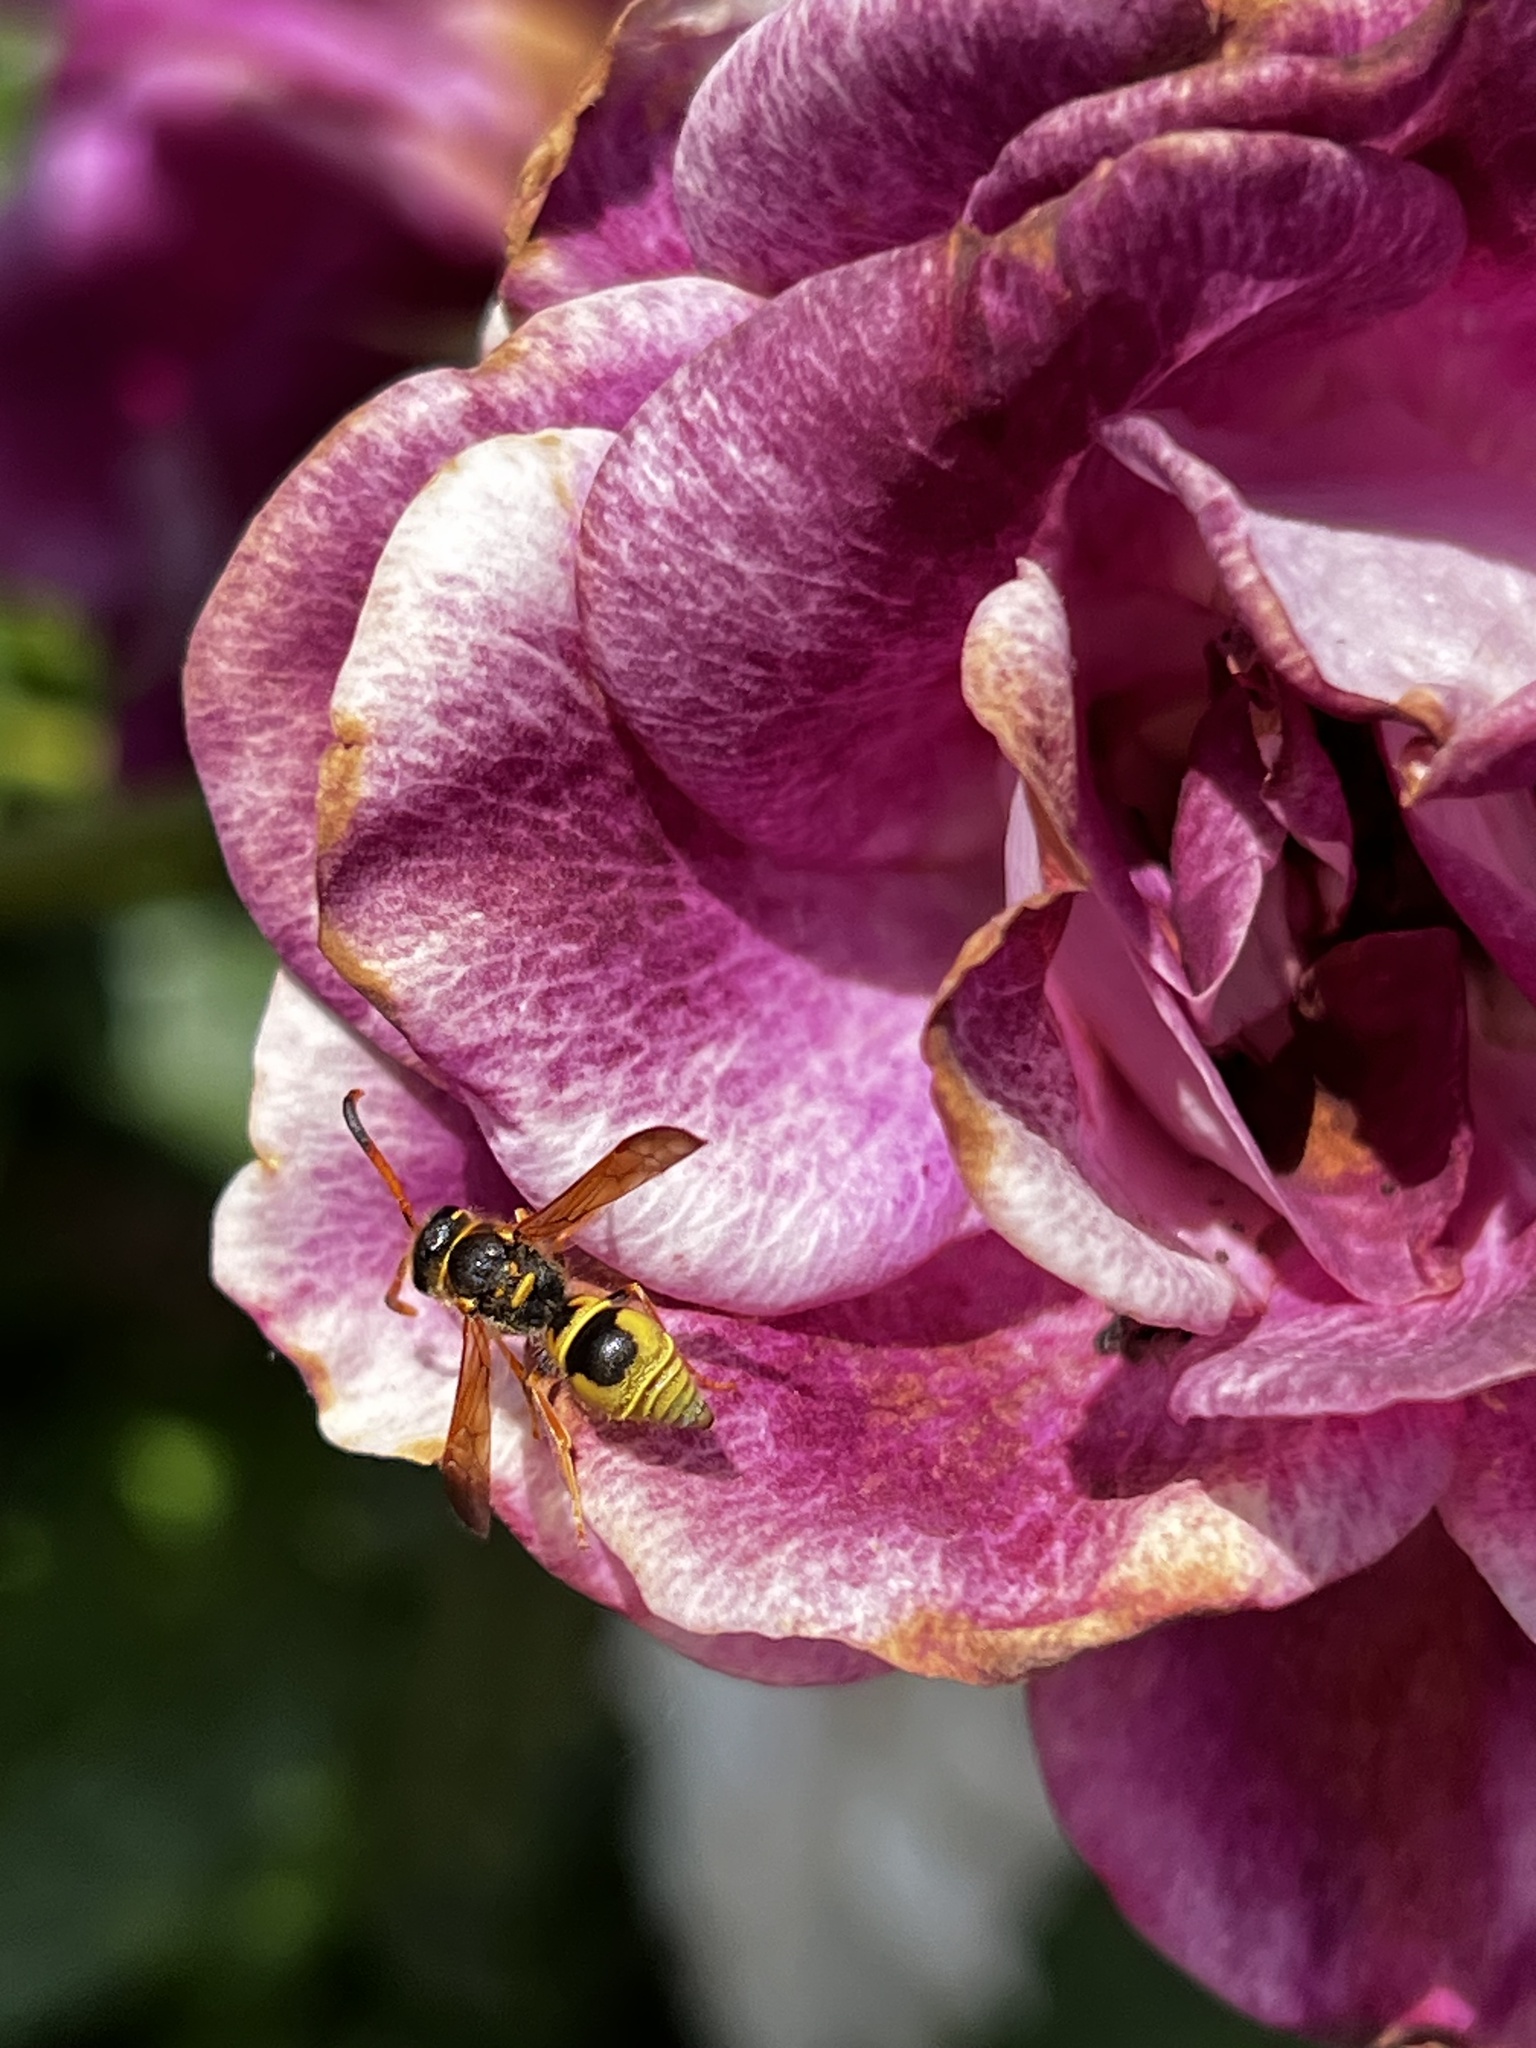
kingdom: Animalia
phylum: Arthropoda
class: Insecta
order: Hymenoptera
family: Vespidae
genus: Ancistrocerus
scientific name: Ancistrocerus tuberculocephalus
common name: Vespid wasp
